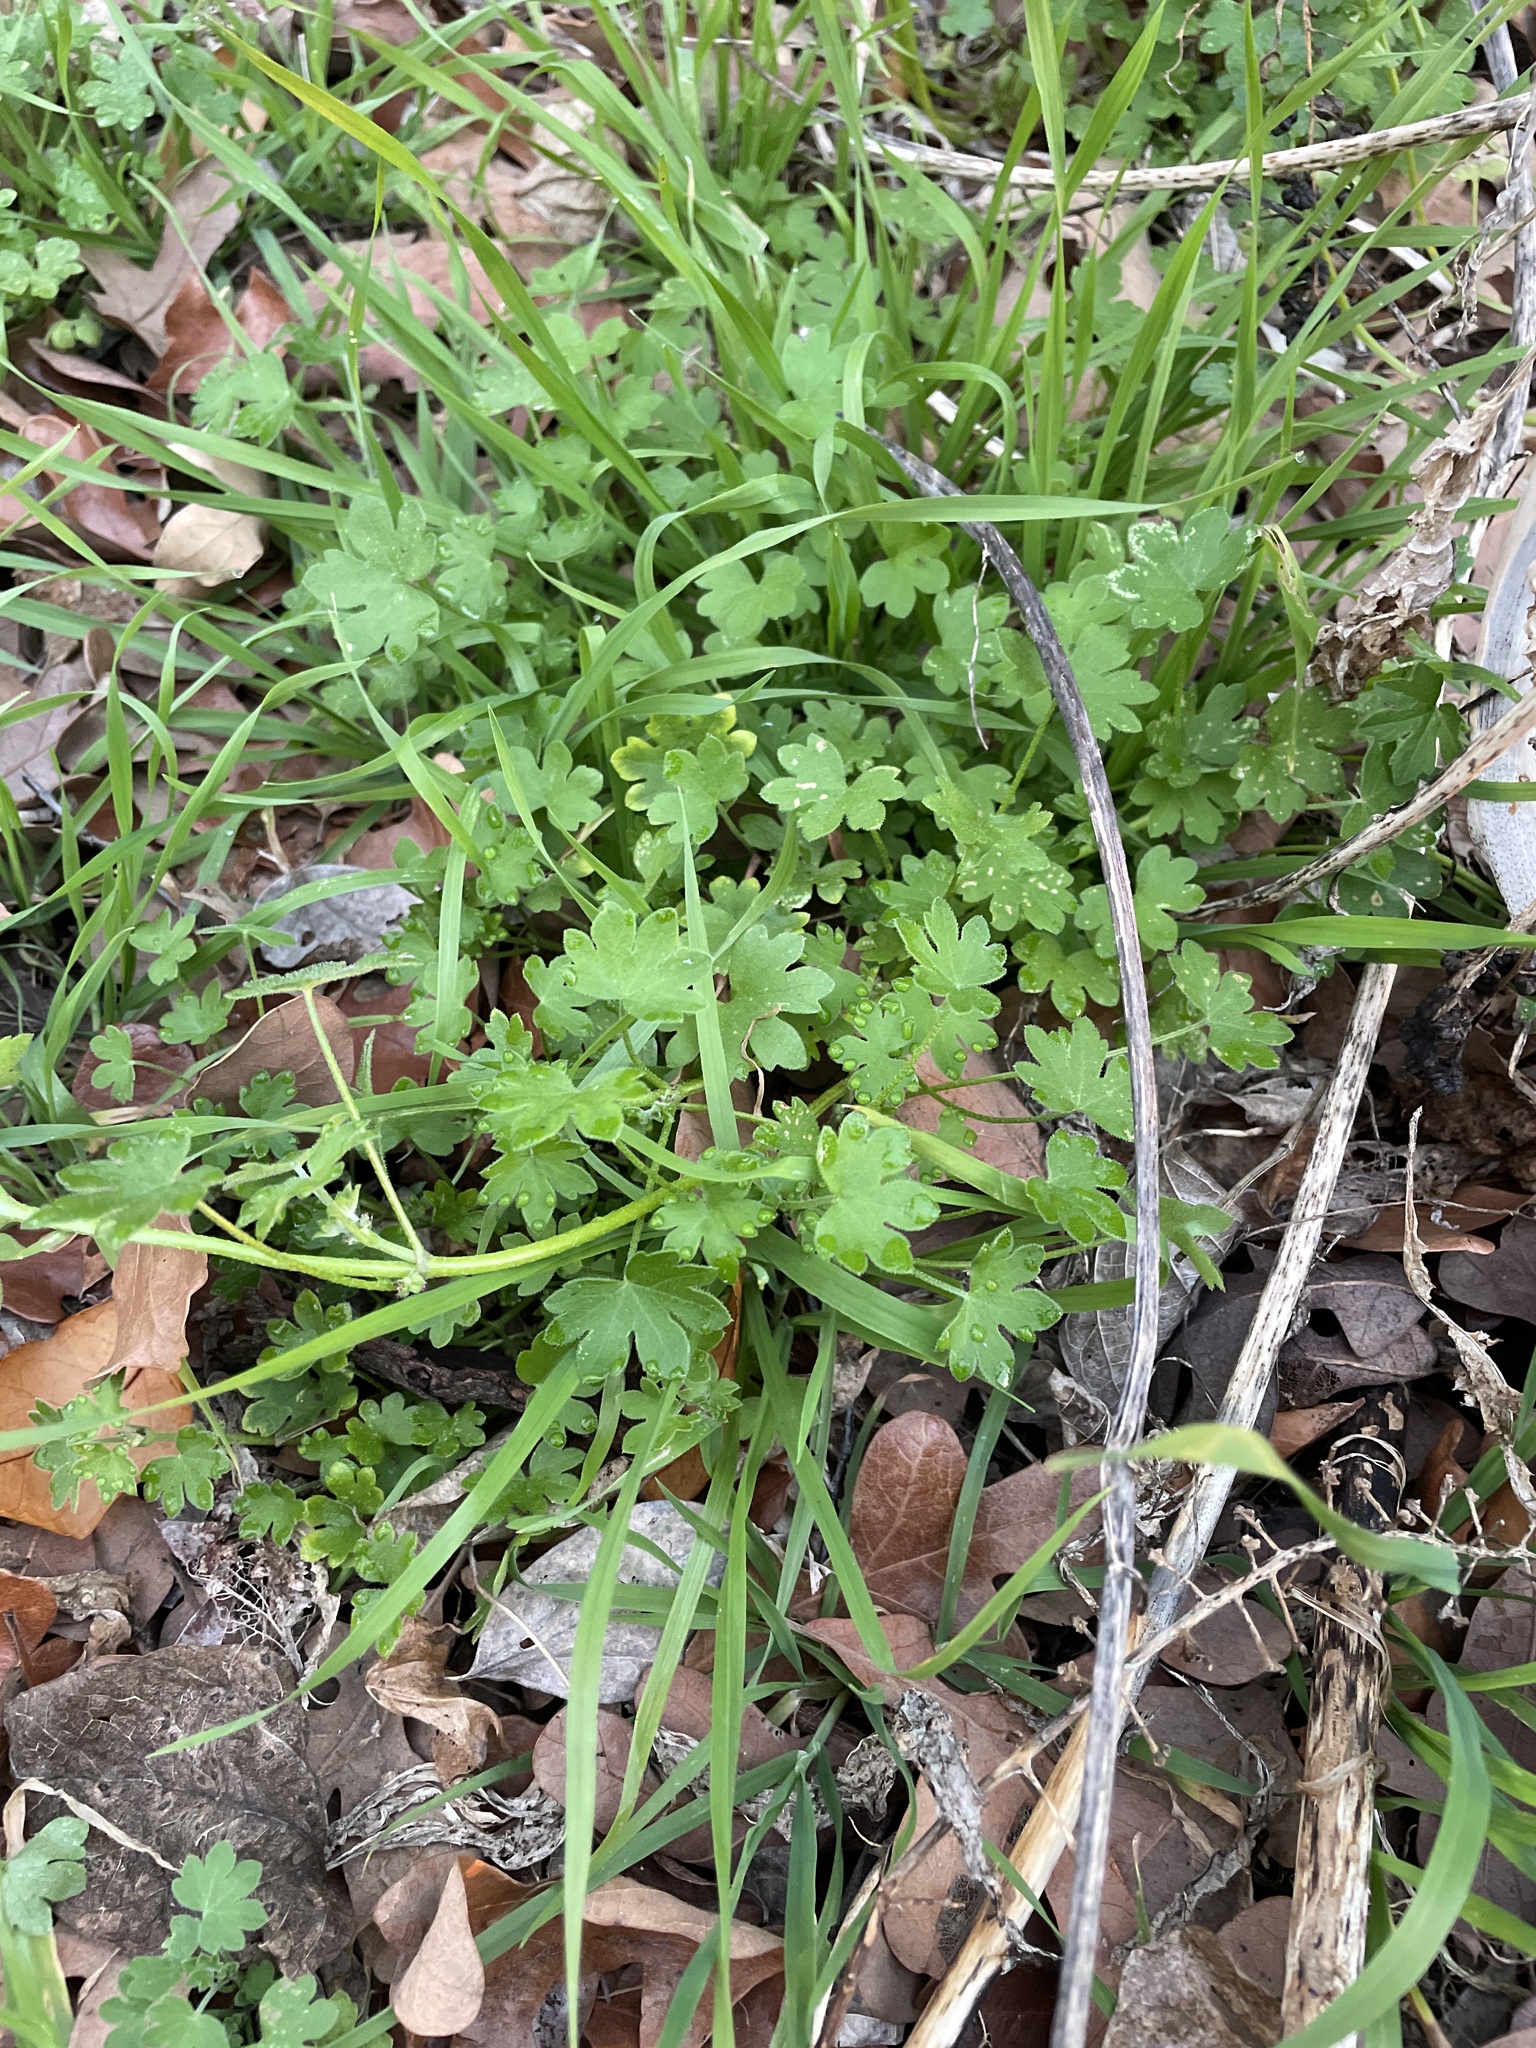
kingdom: Plantae
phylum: Tracheophyta
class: Magnoliopsida
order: Apiales
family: Apiaceae
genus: Bowlesia
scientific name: Bowlesia incana
